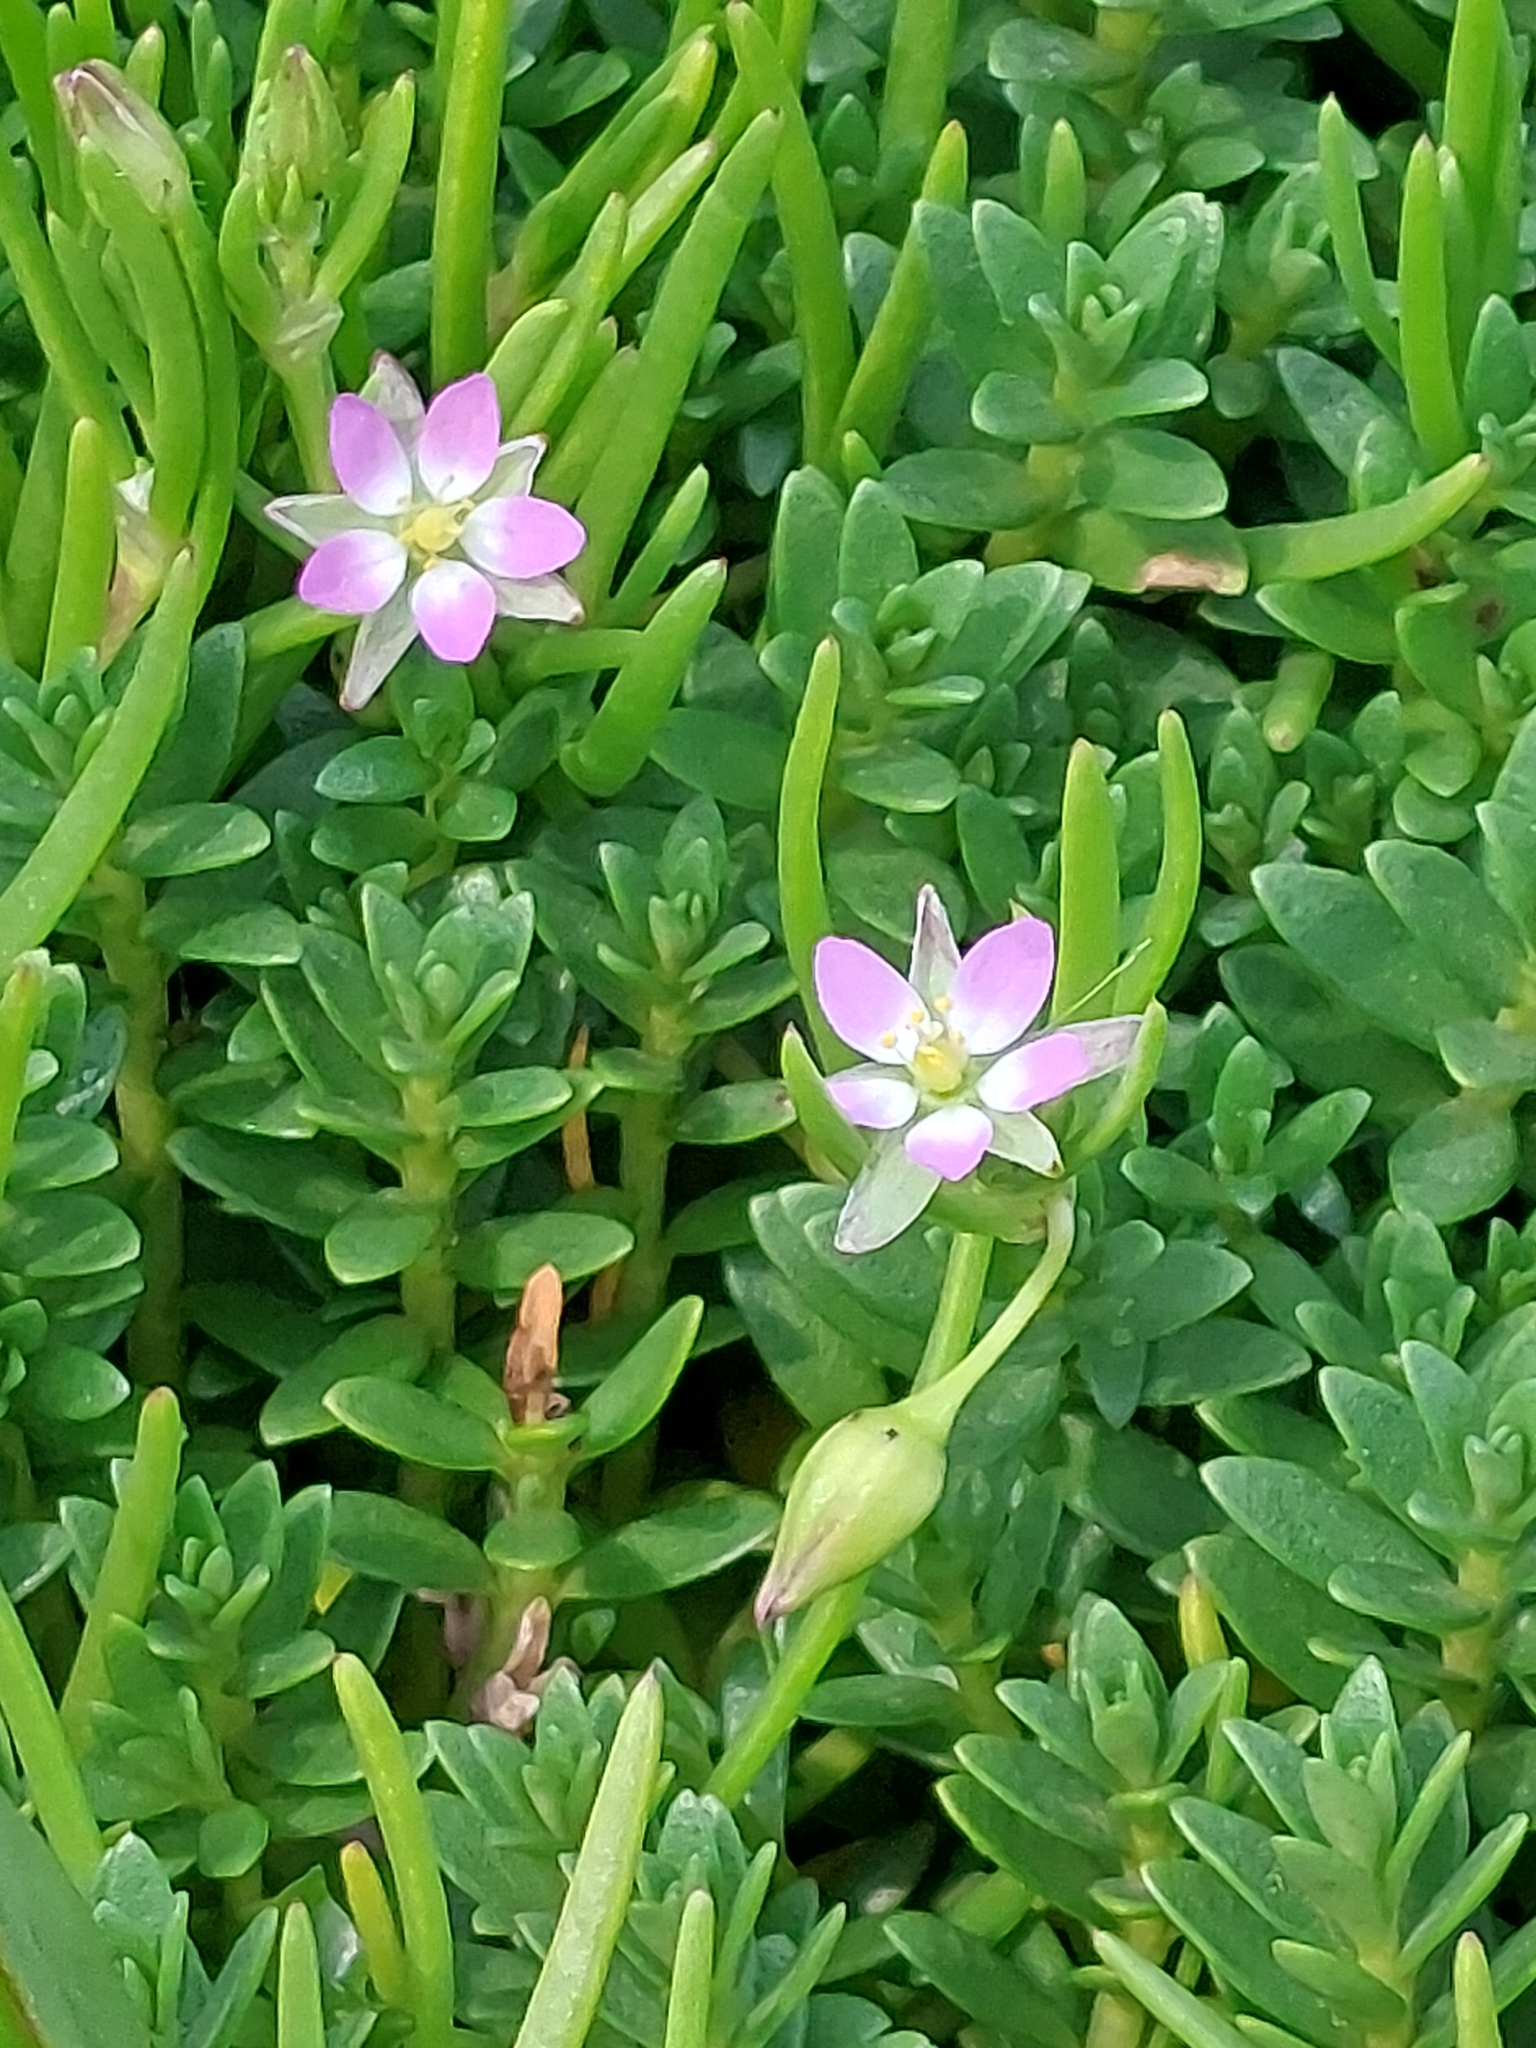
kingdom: Plantae
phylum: Tracheophyta
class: Magnoliopsida
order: Caryophyllales
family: Caryophyllaceae
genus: Spergularia
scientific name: Spergularia marina
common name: Lesser sea-spurrey
